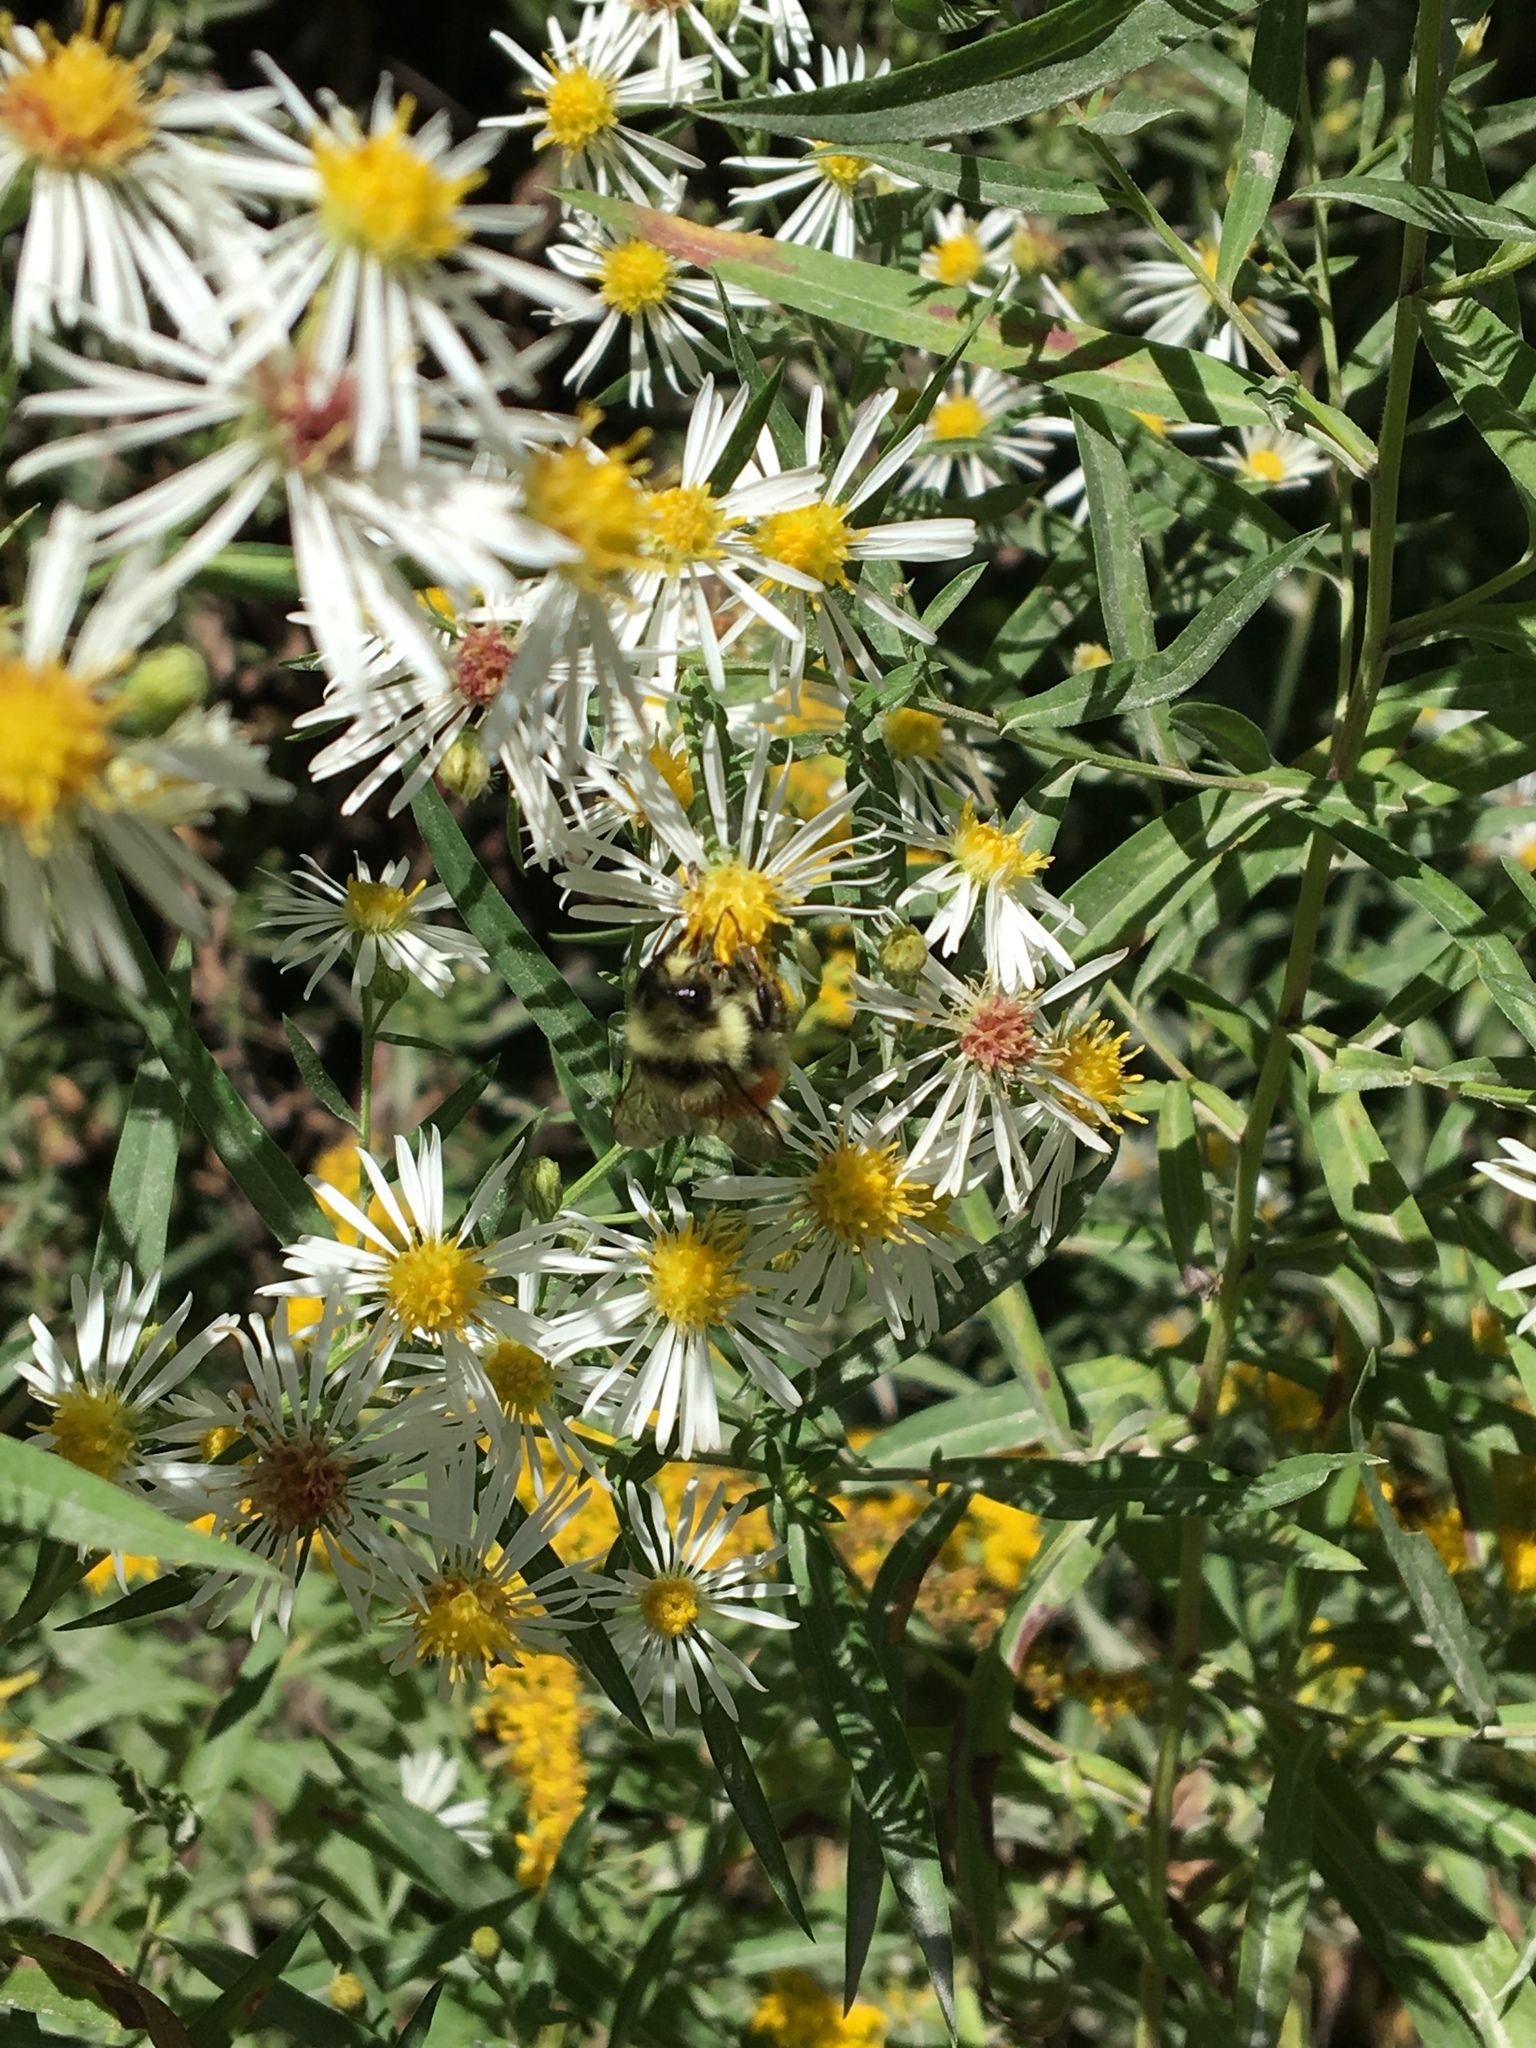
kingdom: Animalia
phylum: Arthropoda
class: Insecta
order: Hymenoptera
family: Apidae
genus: Bombus
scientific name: Bombus ternarius
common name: Tri-colored bumble bee
